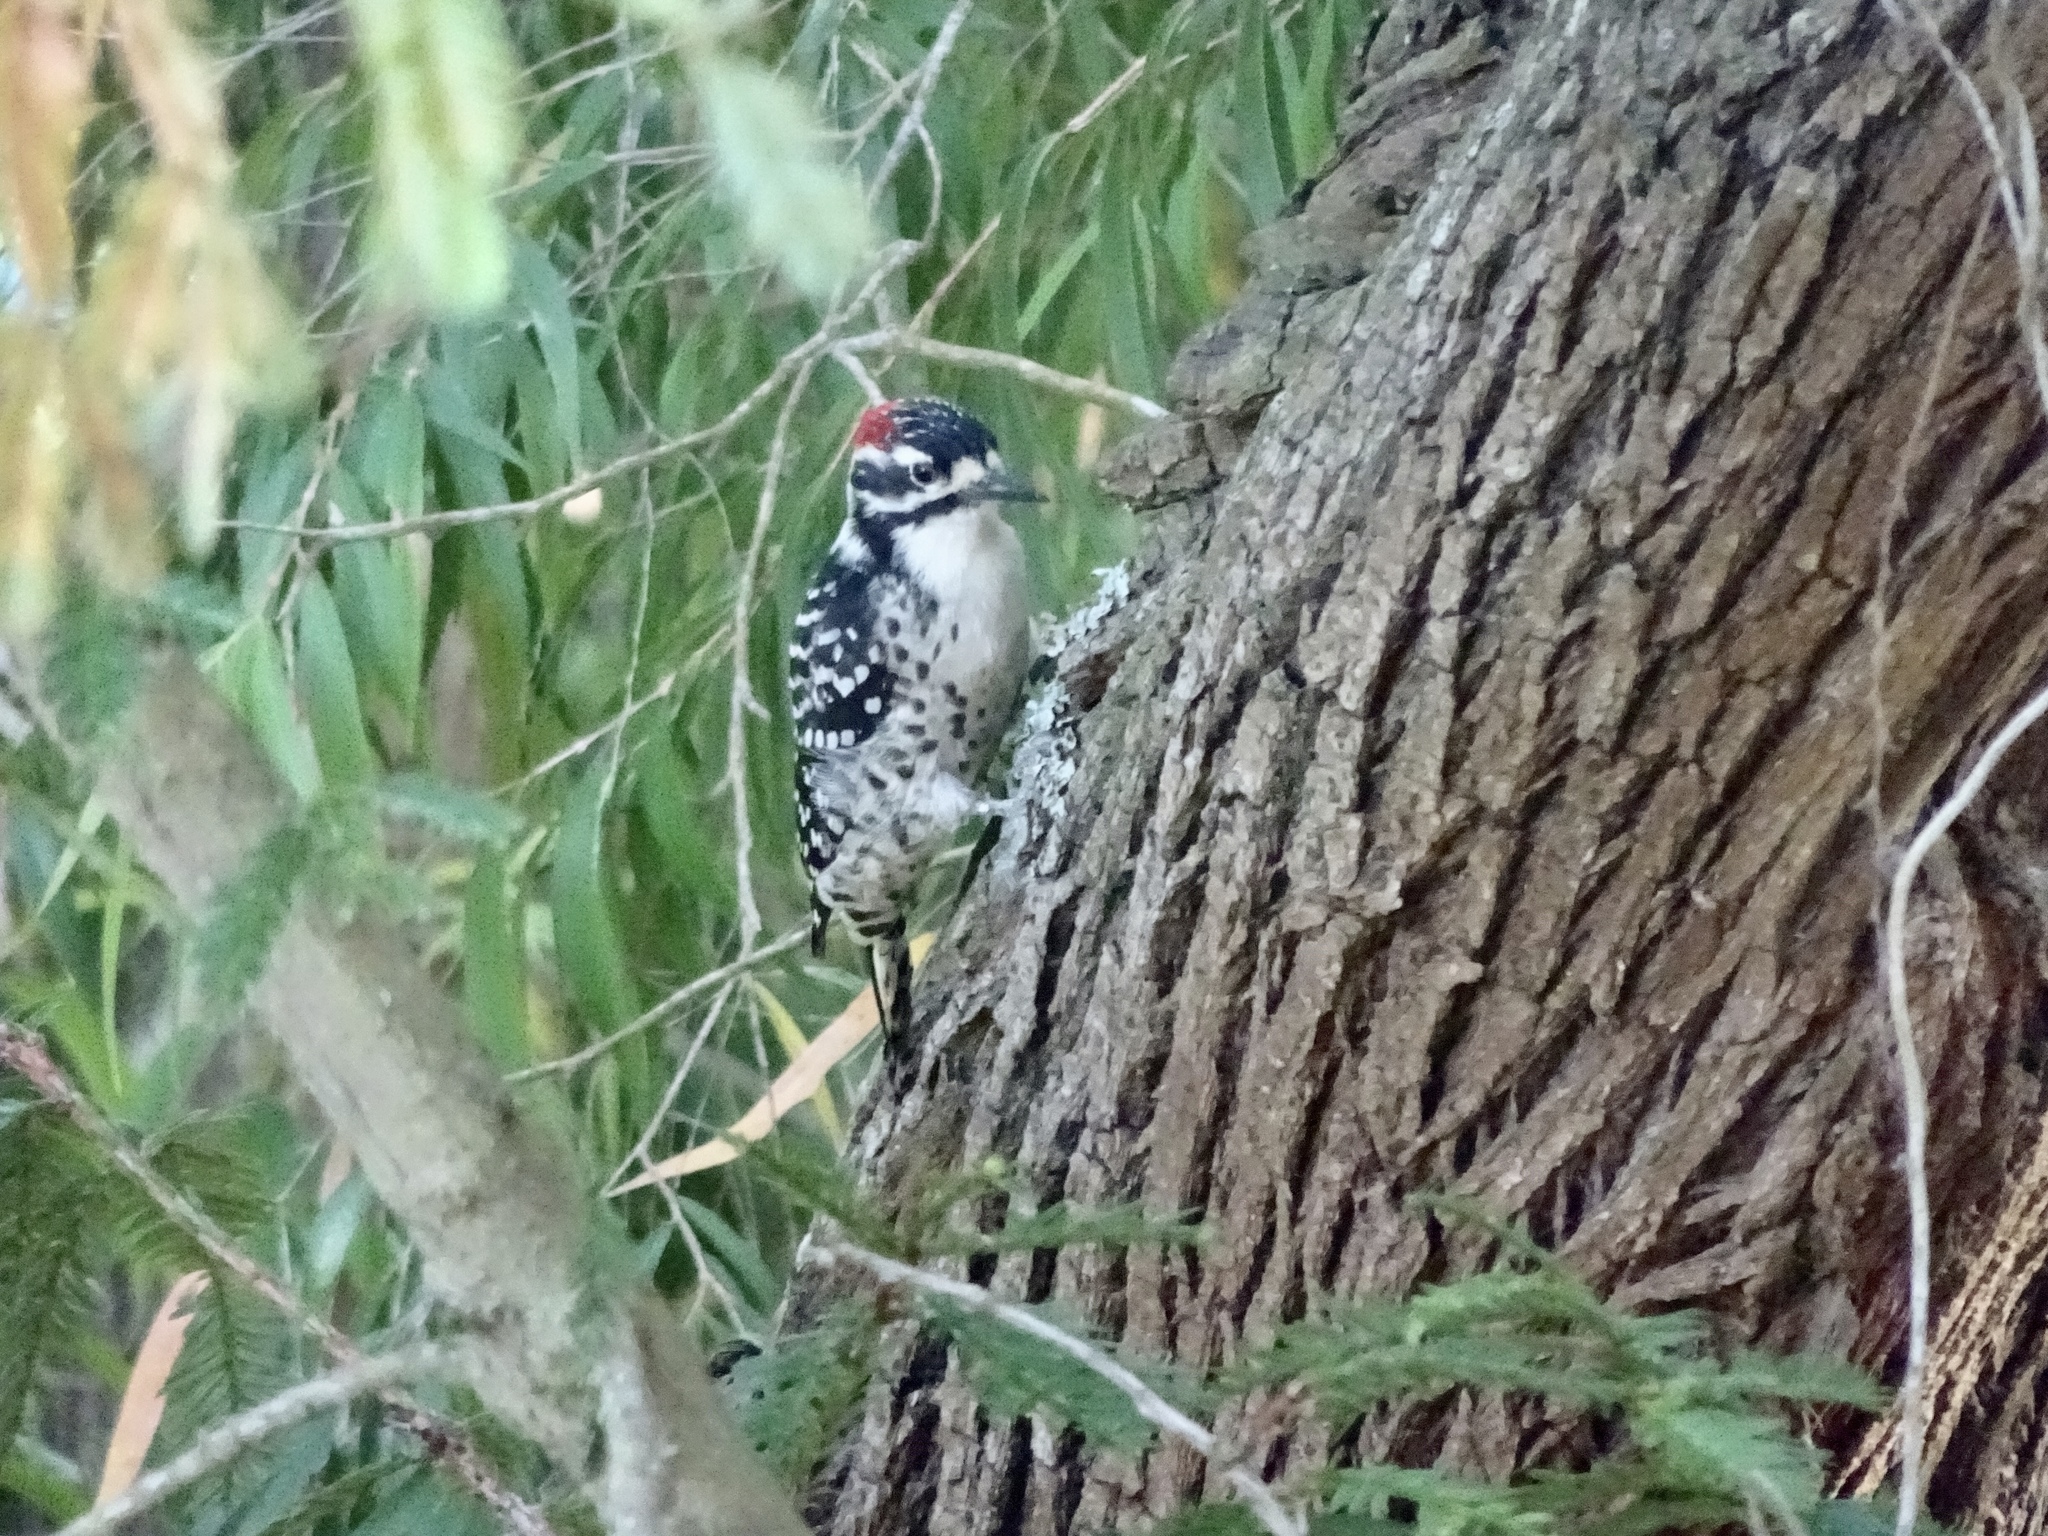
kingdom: Animalia
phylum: Chordata
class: Aves
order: Piciformes
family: Picidae
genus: Dryobates
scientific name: Dryobates nuttallii
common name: Nuttall's woodpecker
